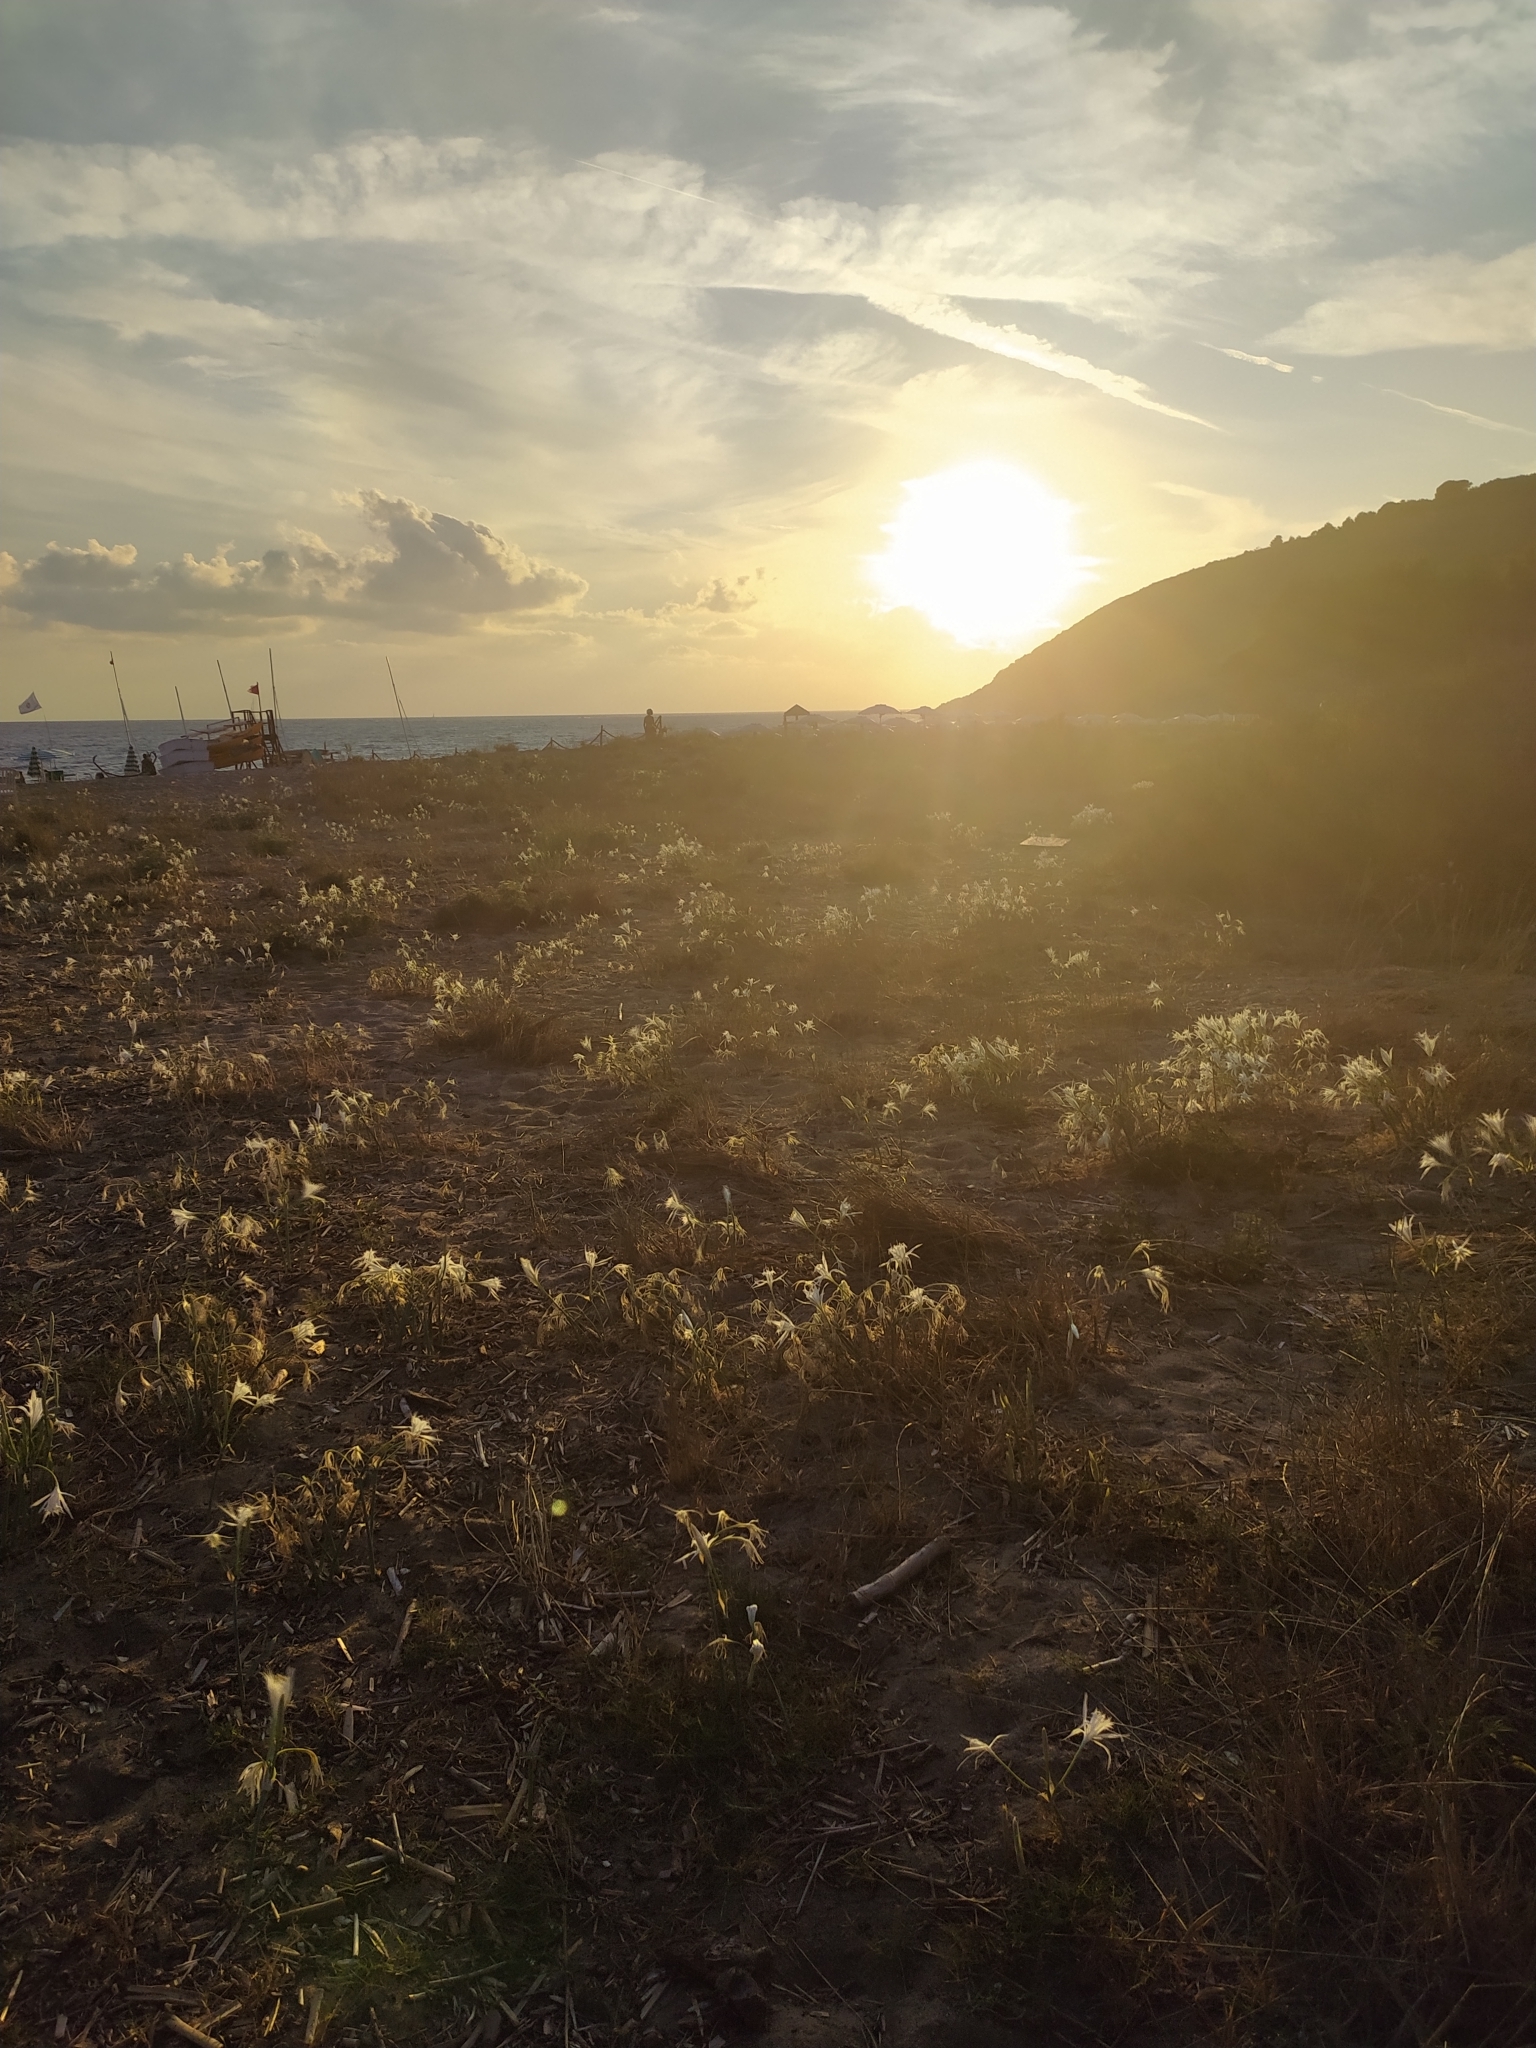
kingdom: Plantae
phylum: Tracheophyta
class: Liliopsida
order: Asparagales
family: Amaryllidaceae
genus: Pancratium
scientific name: Pancratium maritimum
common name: Sea-daffodil
